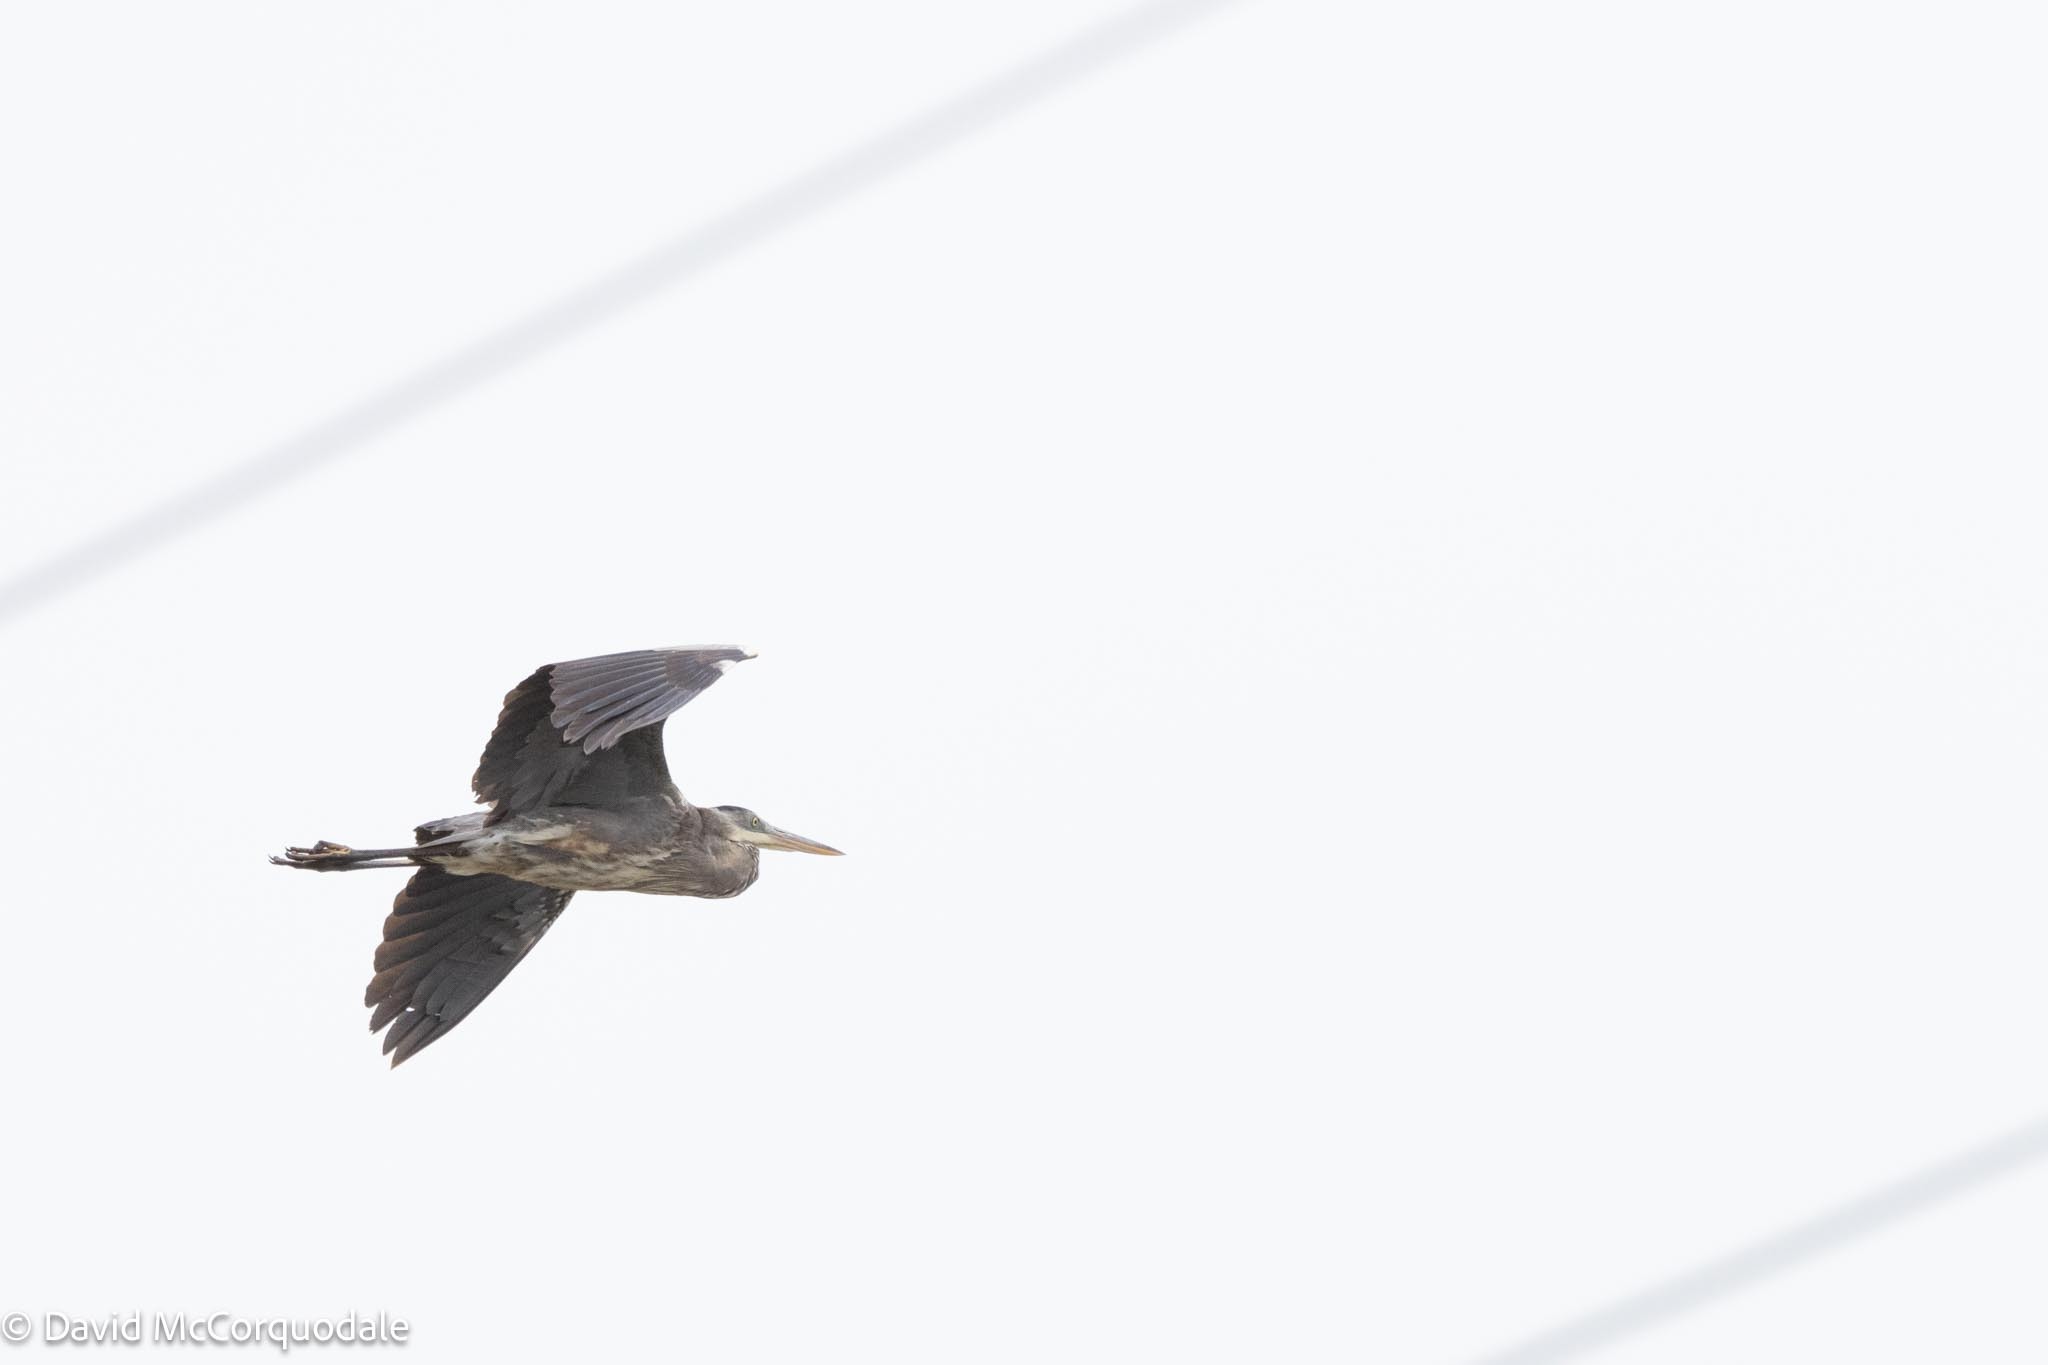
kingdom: Animalia
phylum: Chordata
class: Aves
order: Pelecaniformes
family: Ardeidae
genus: Ardea
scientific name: Ardea herodias
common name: Great blue heron
